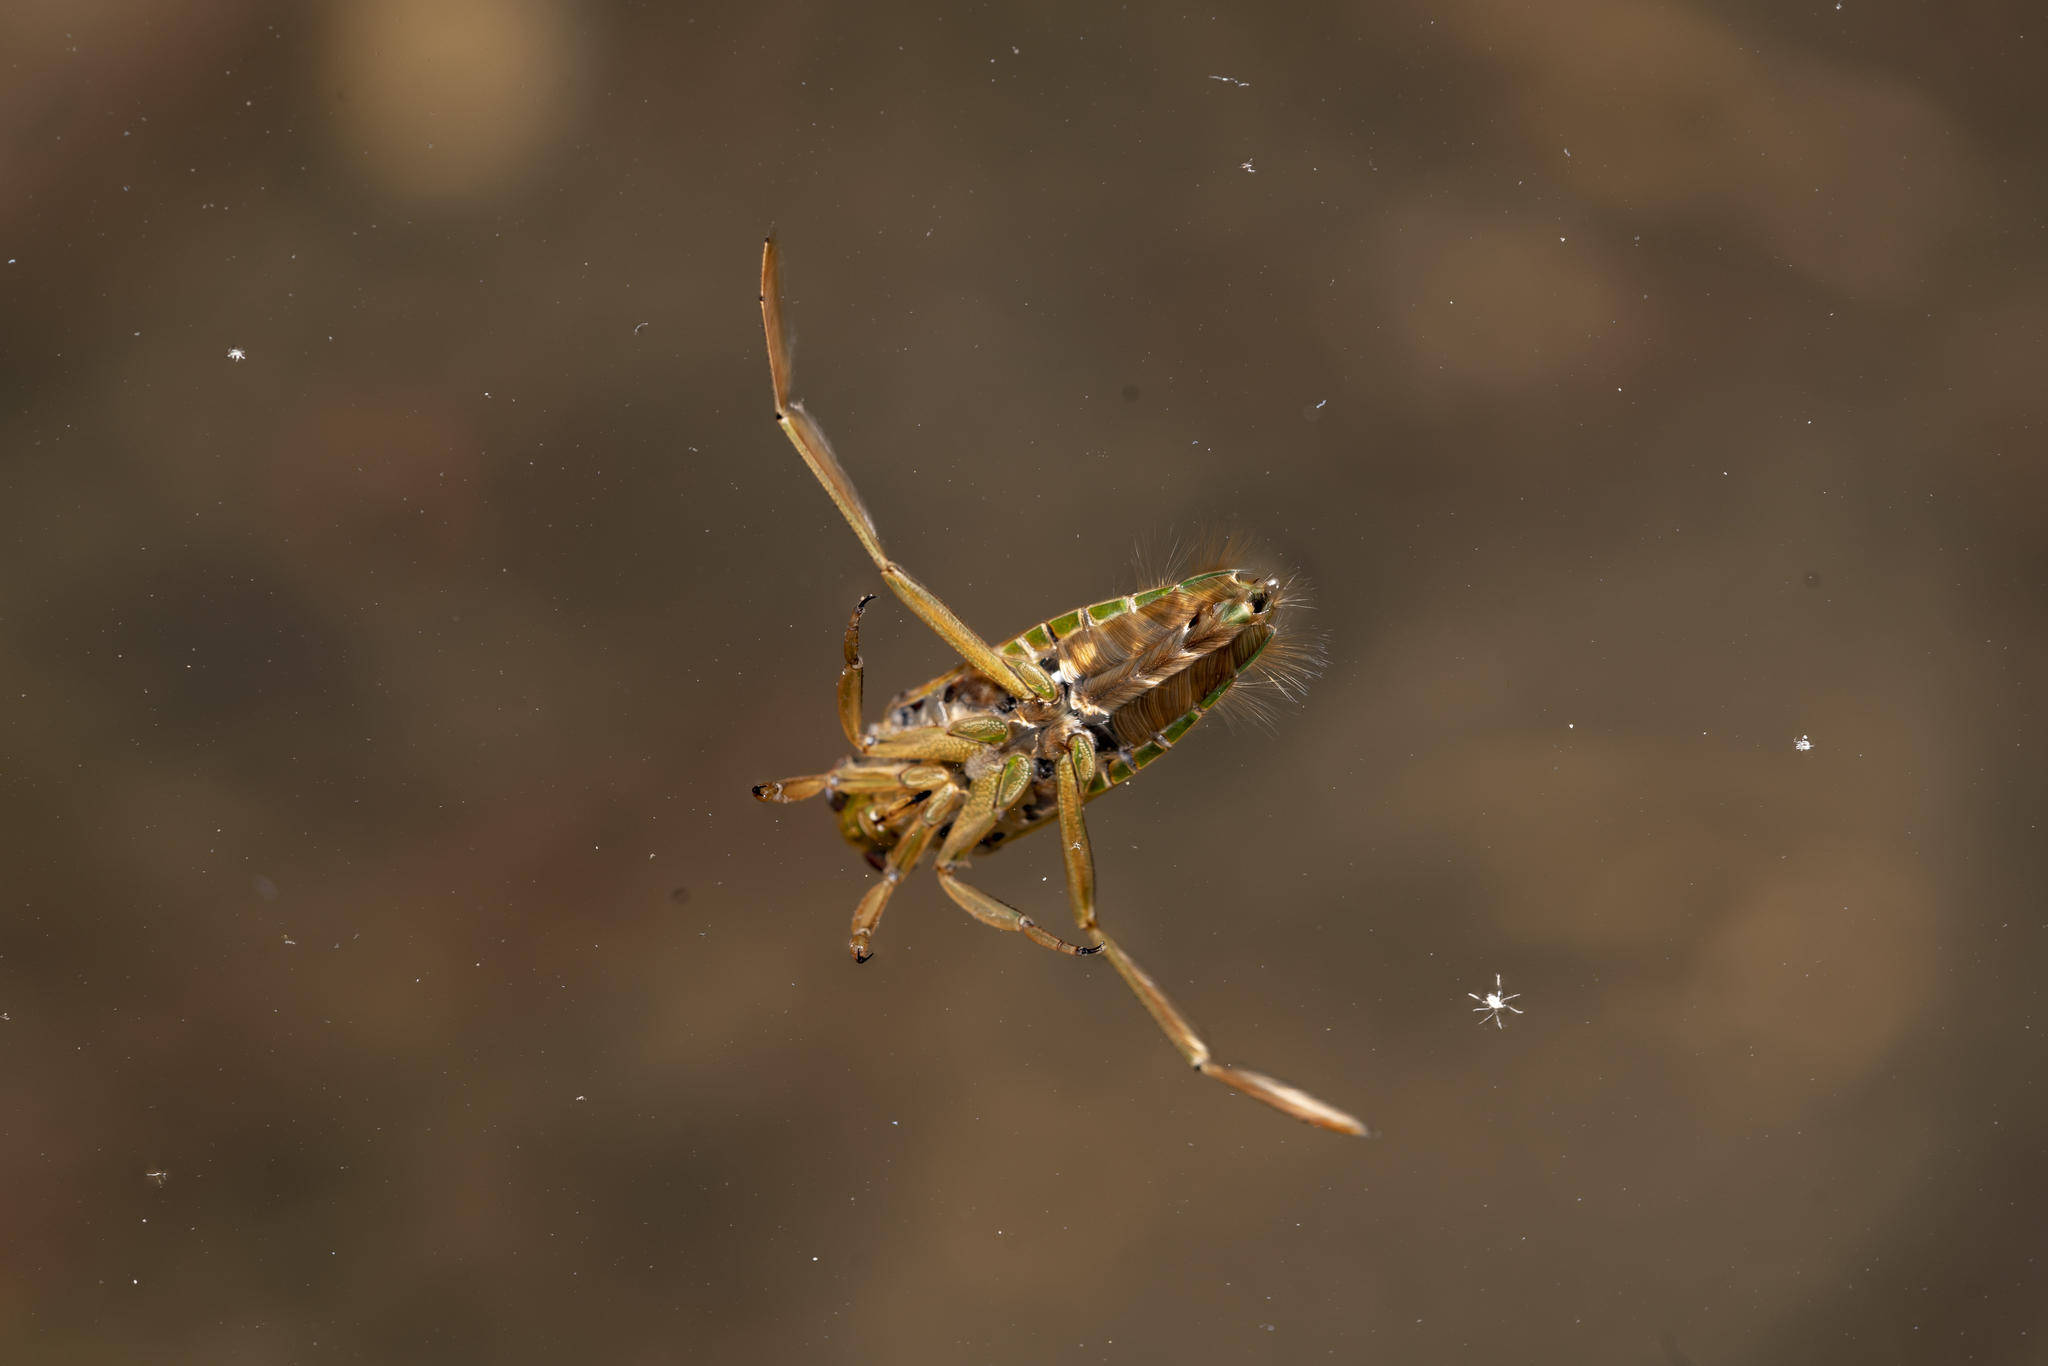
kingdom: Animalia
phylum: Arthropoda
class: Insecta
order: Hemiptera
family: Notonectidae
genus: Notonecta
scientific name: Notonecta
